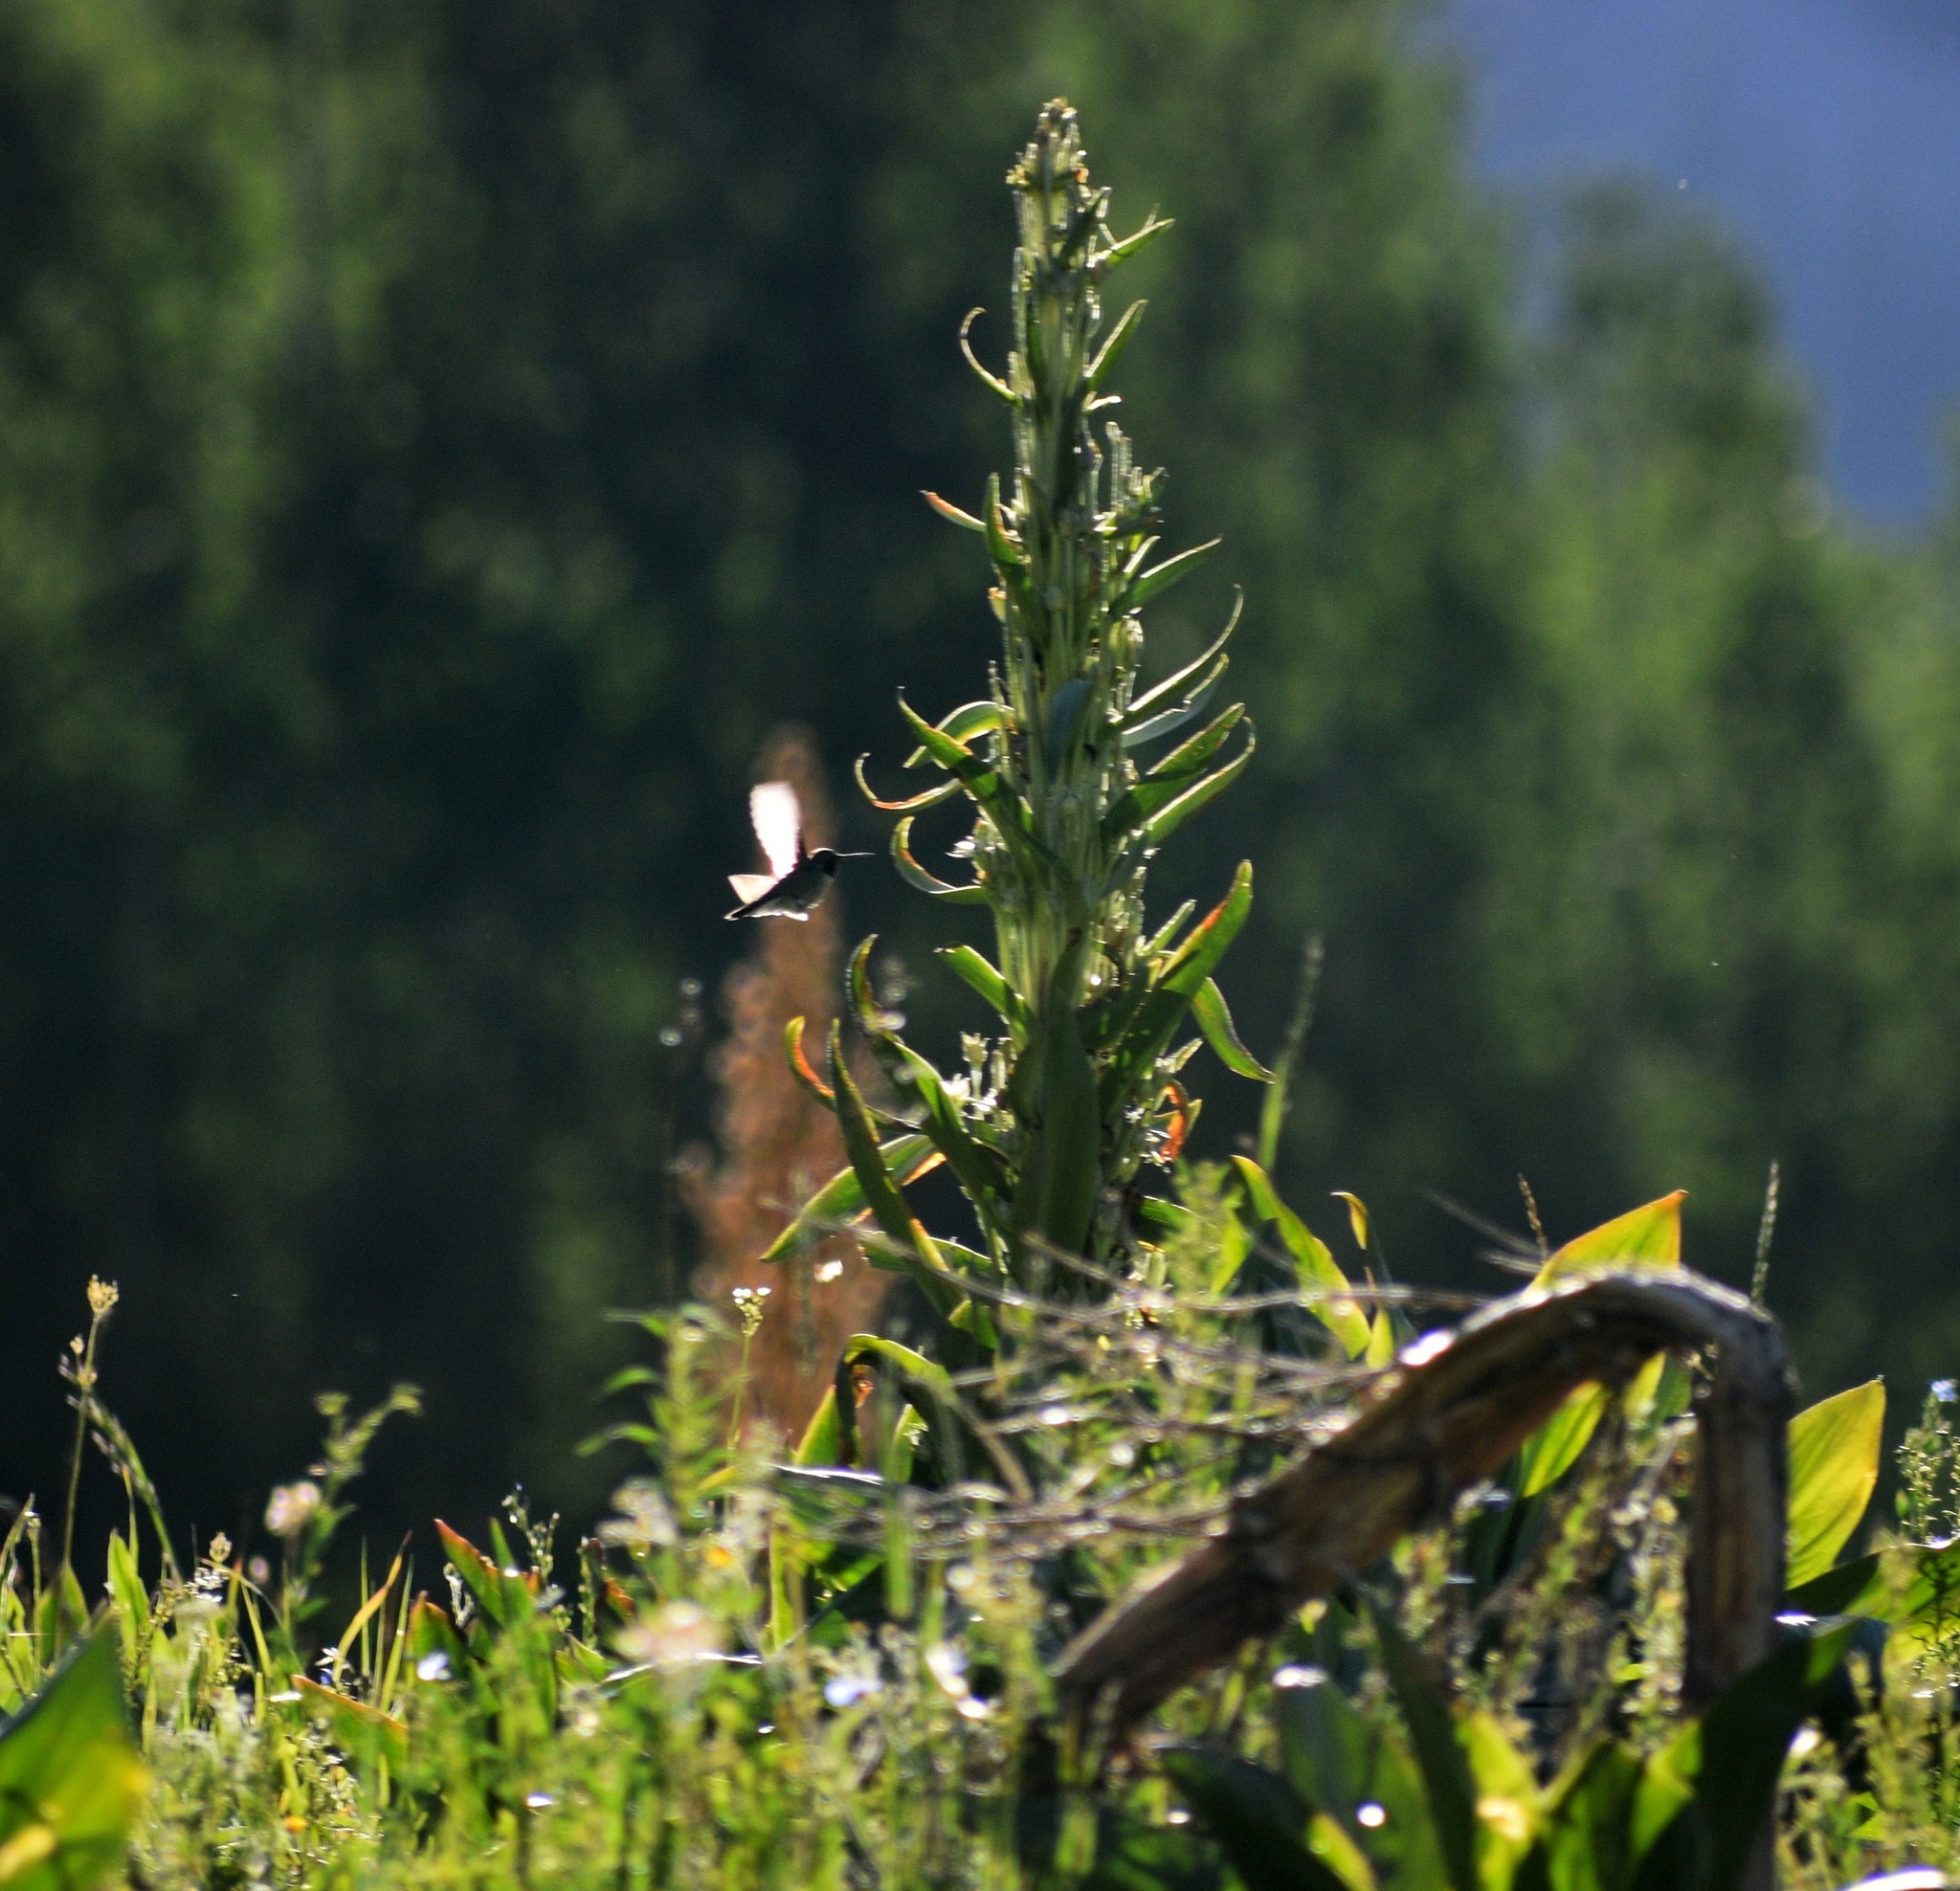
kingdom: Animalia
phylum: Chordata
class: Aves
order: Apodiformes
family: Trochilidae
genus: Selasphorus
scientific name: Selasphorus platycercus
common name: Broad-tailed hummingbird
